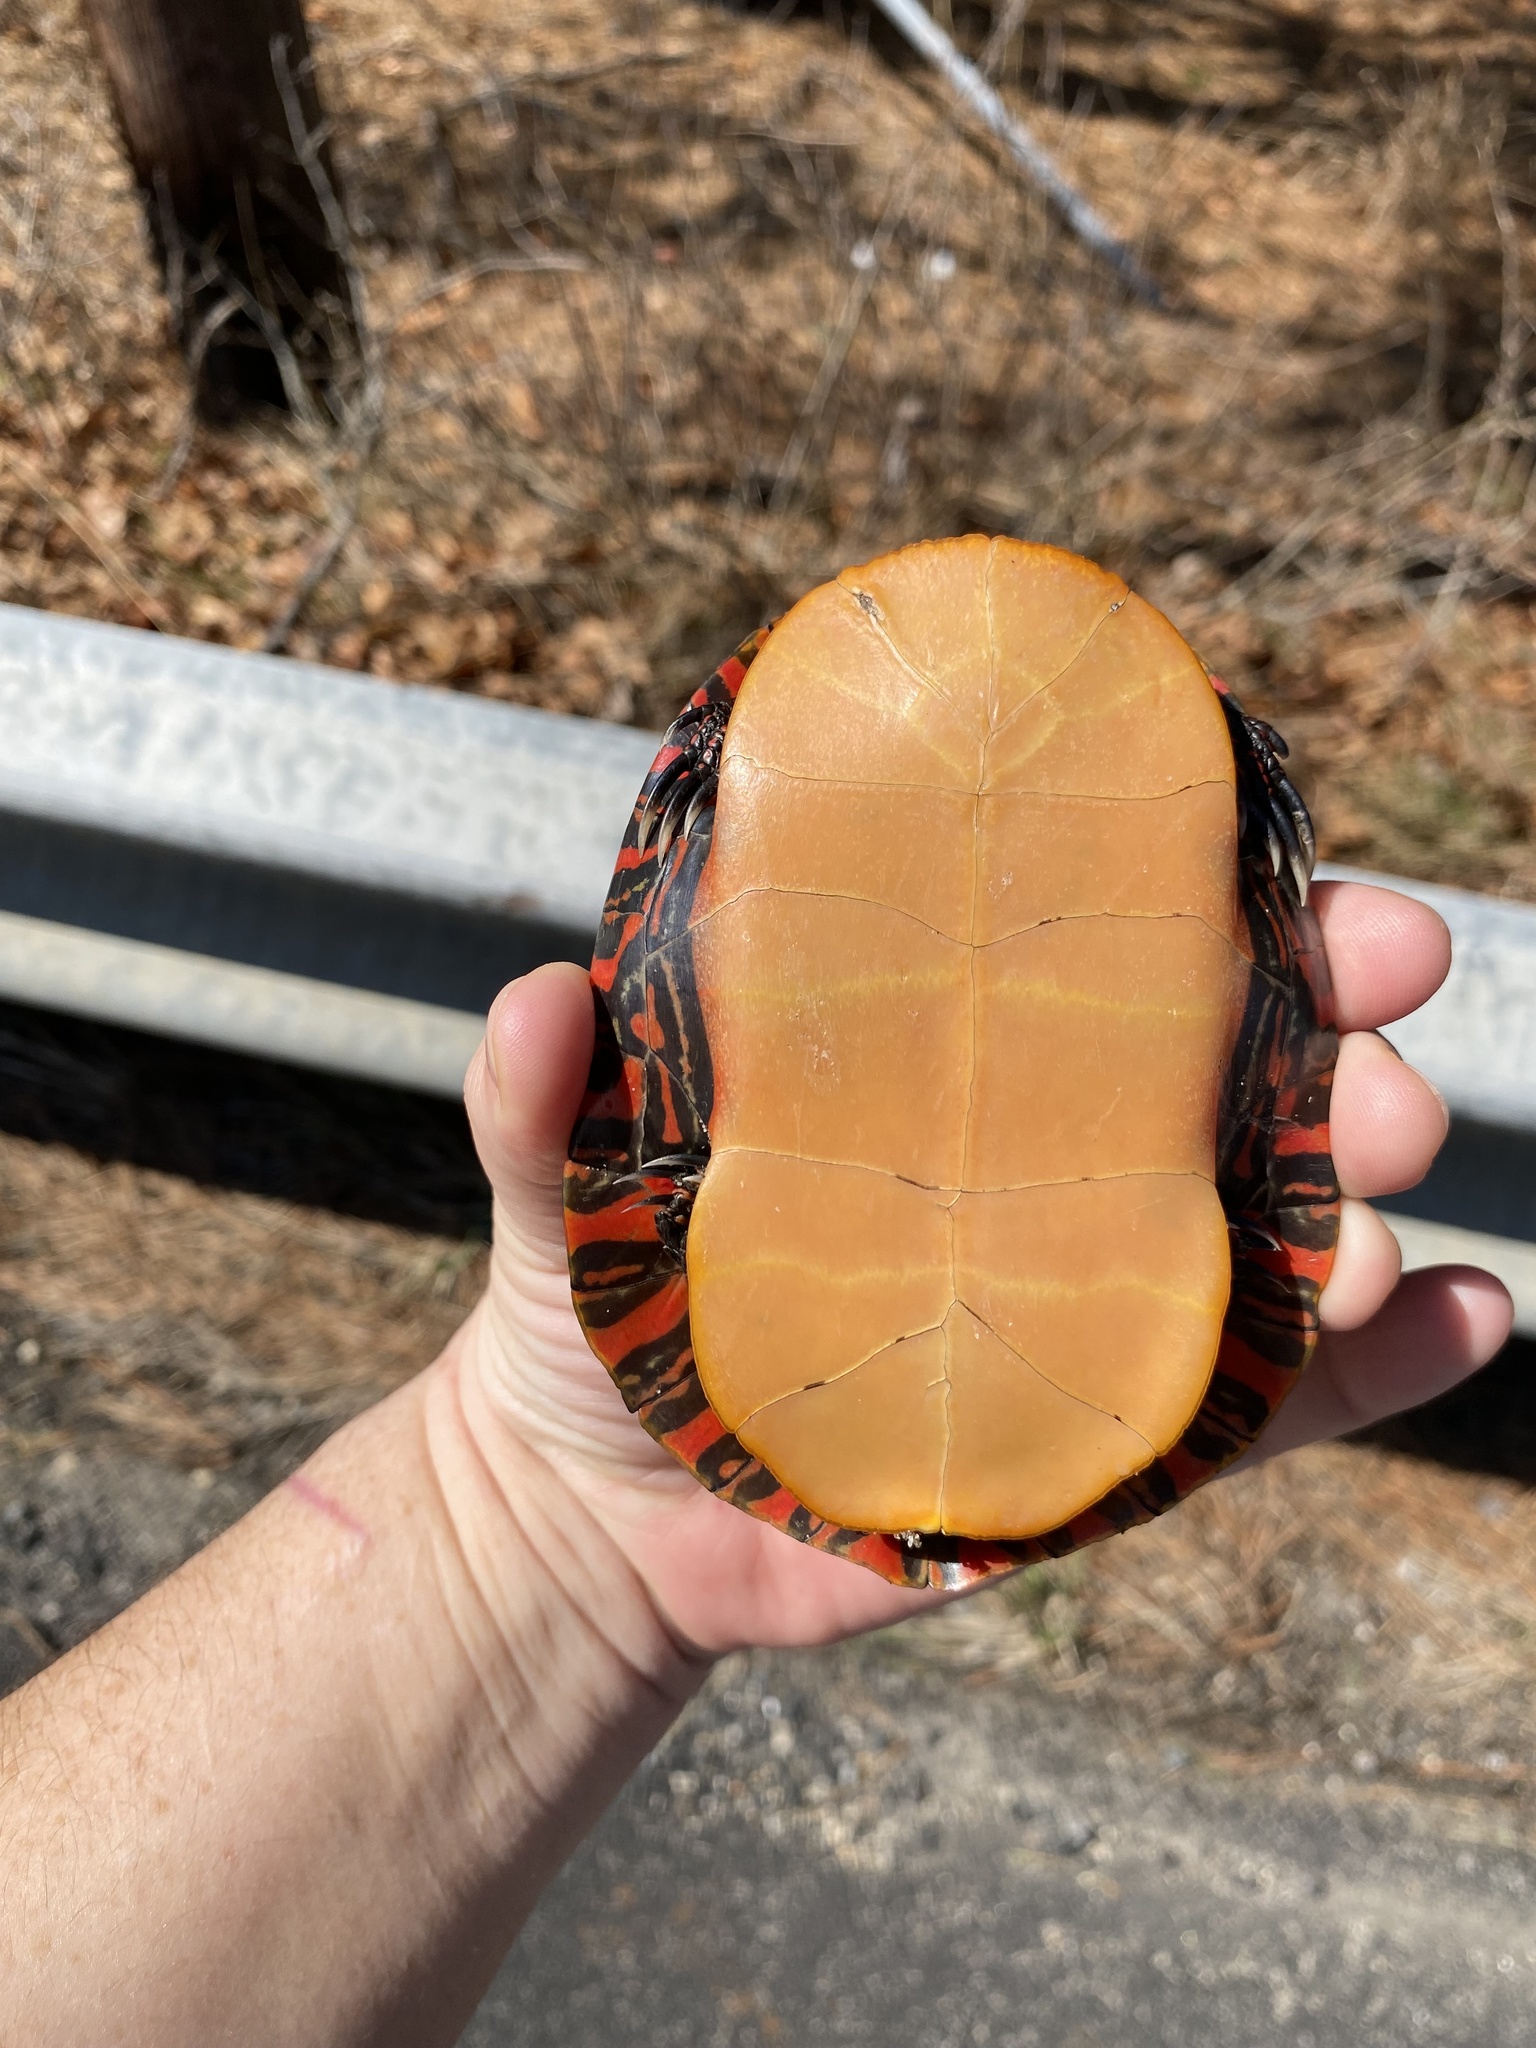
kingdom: Animalia
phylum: Chordata
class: Testudines
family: Emydidae
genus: Chrysemys
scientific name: Chrysemys picta
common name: Painted turtle
